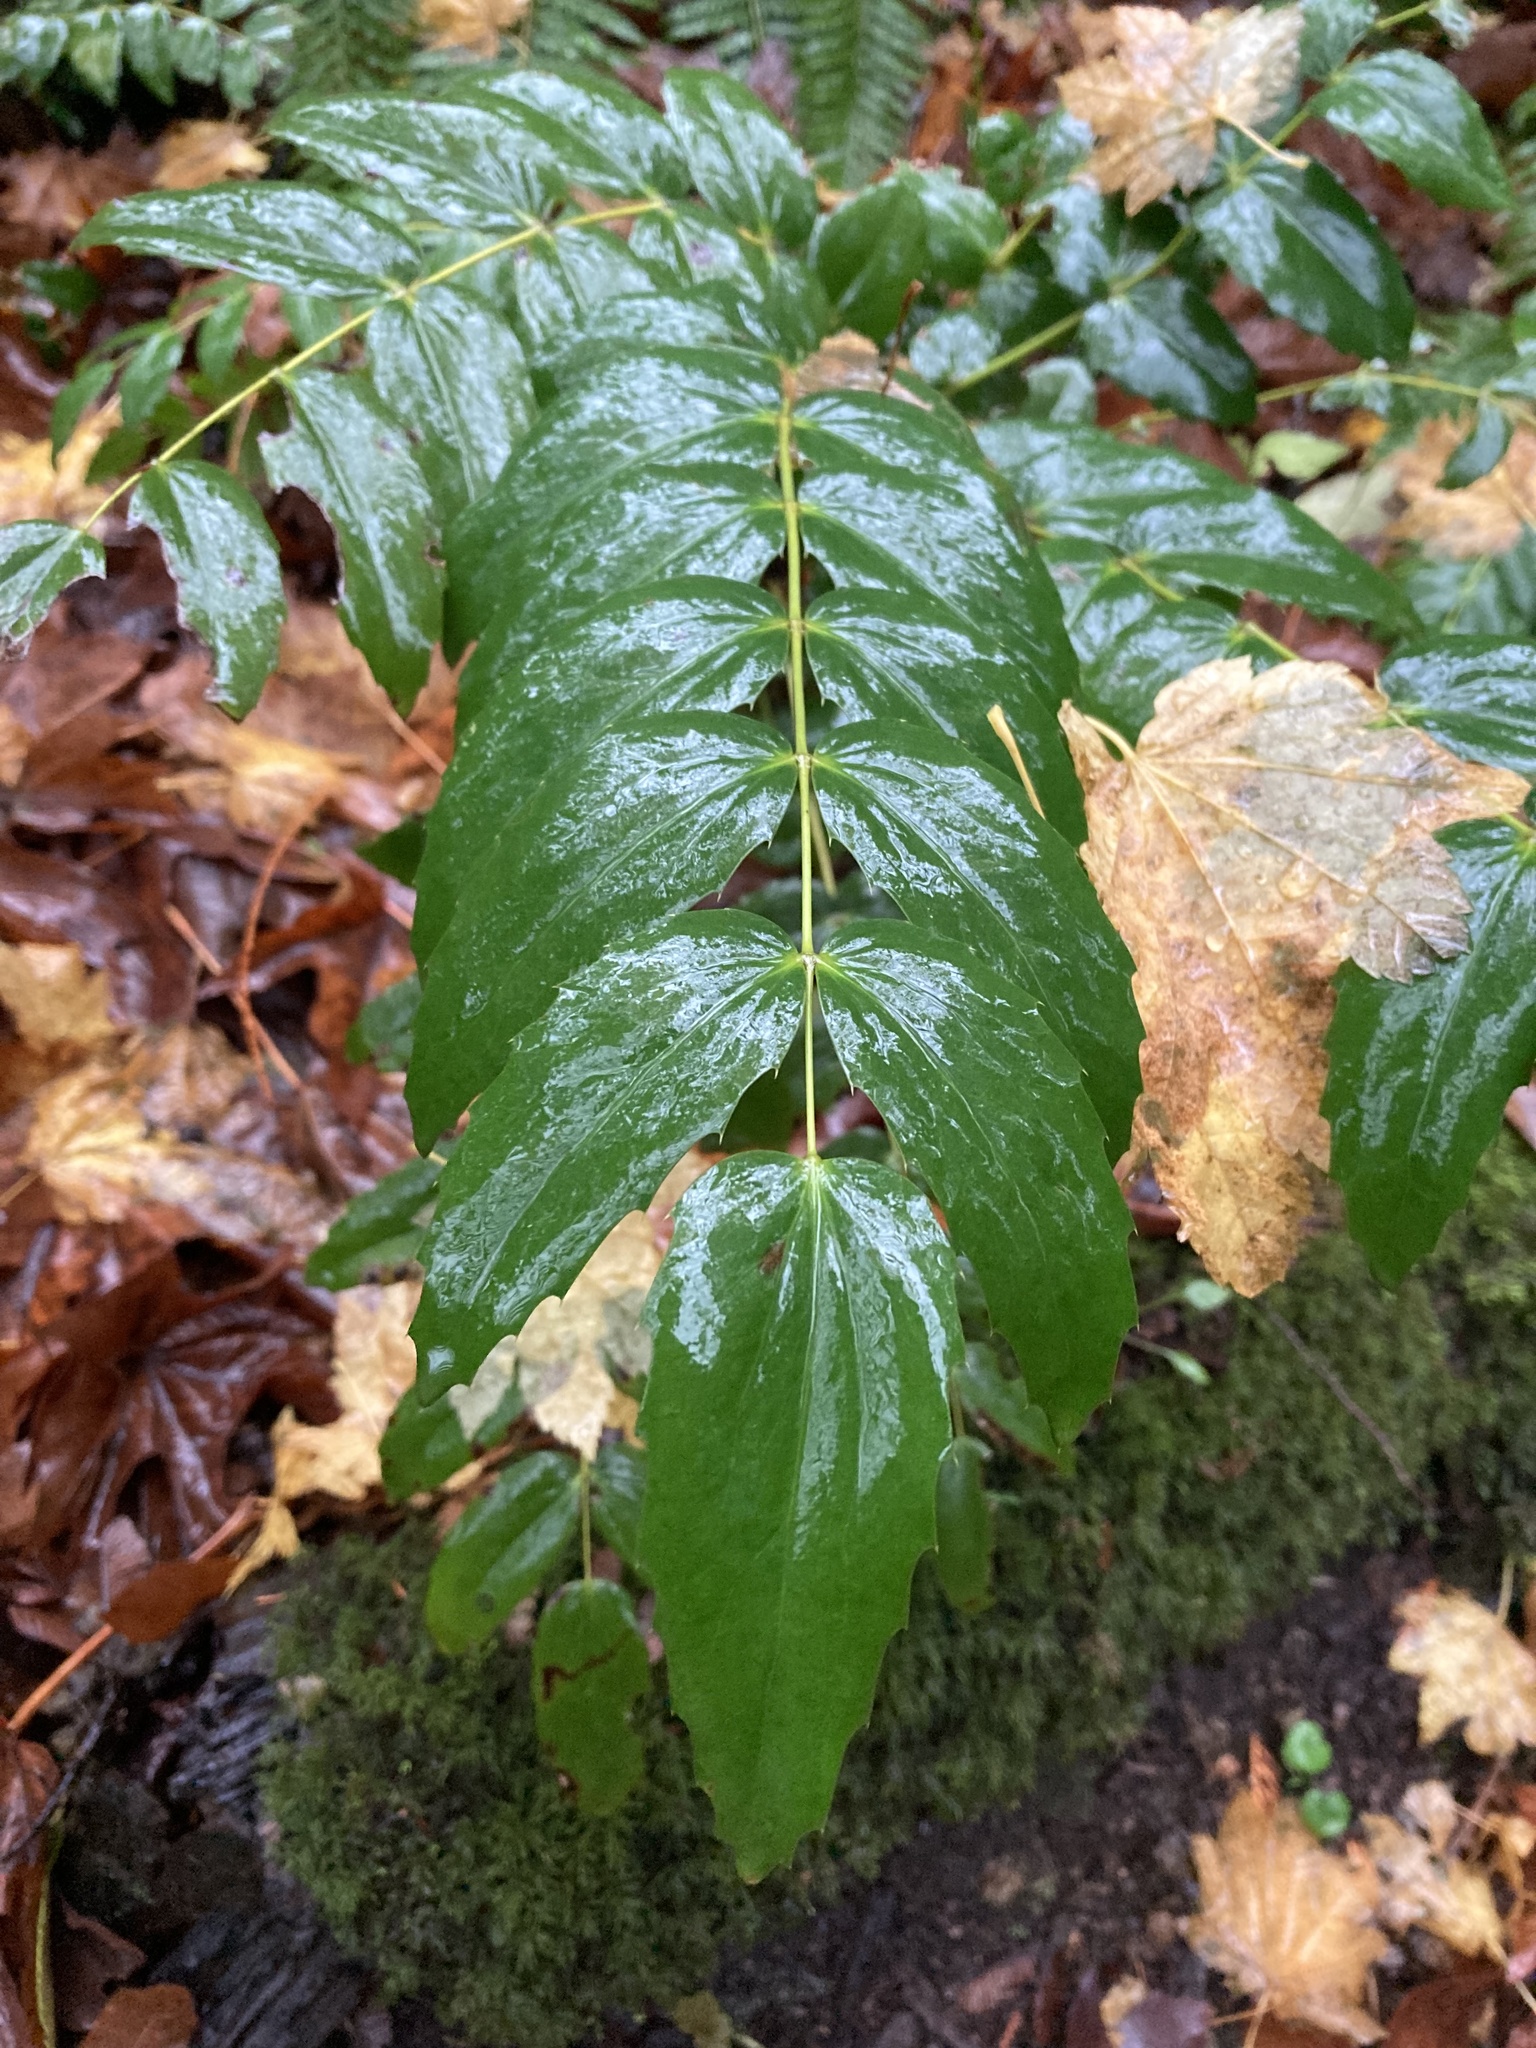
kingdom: Plantae
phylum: Tracheophyta
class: Magnoliopsida
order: Ranunculales
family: Berberidaceae
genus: Mahonia
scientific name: Mahonia nervosa
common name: Cascade oregon-grape
